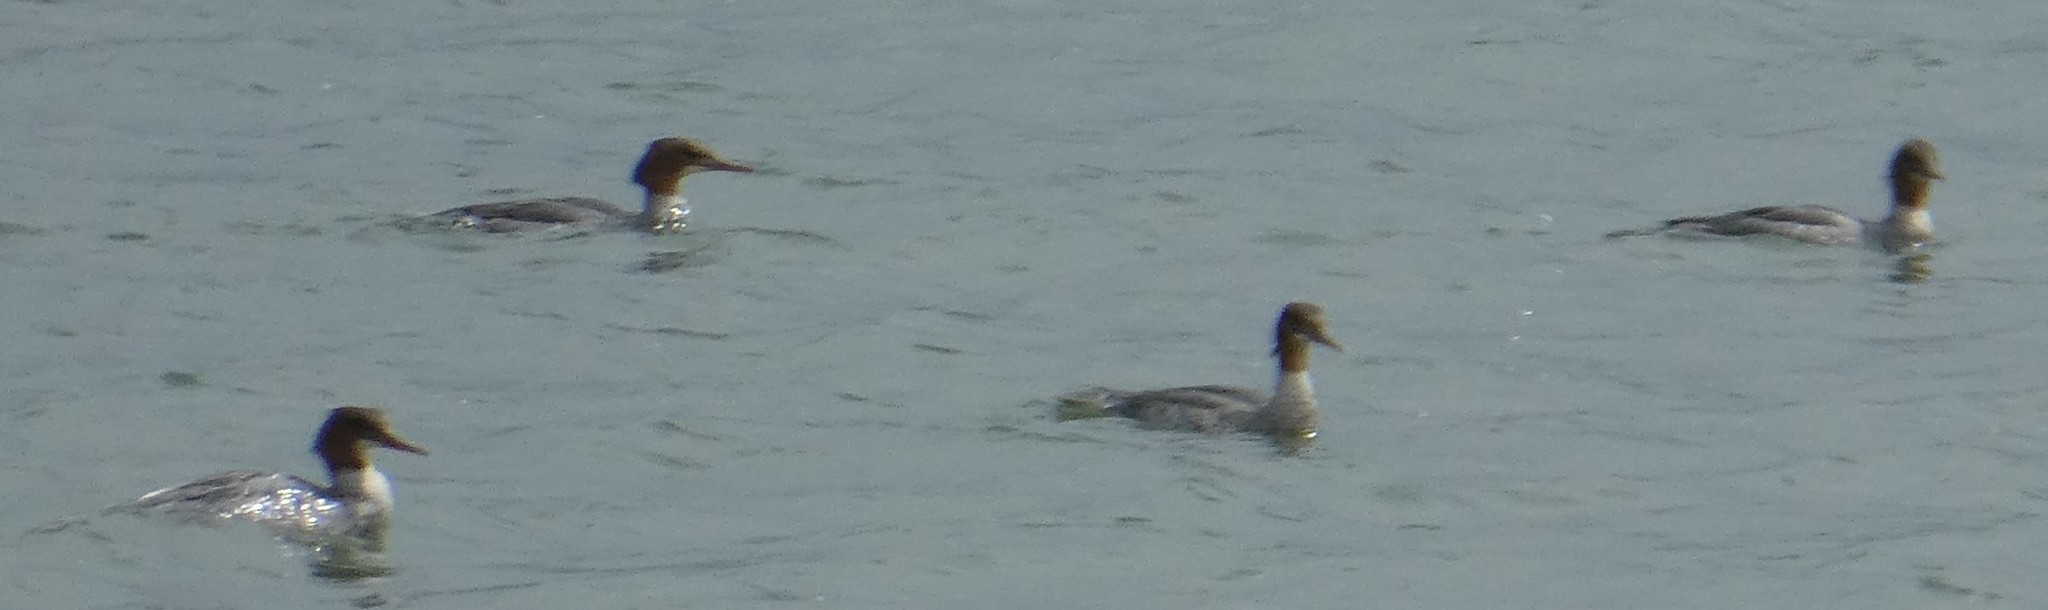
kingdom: Animalia
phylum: Chordata
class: Aves
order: Anseriformes
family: Anatidae
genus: Mergus
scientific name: Mergus merganser
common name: Common merganser
